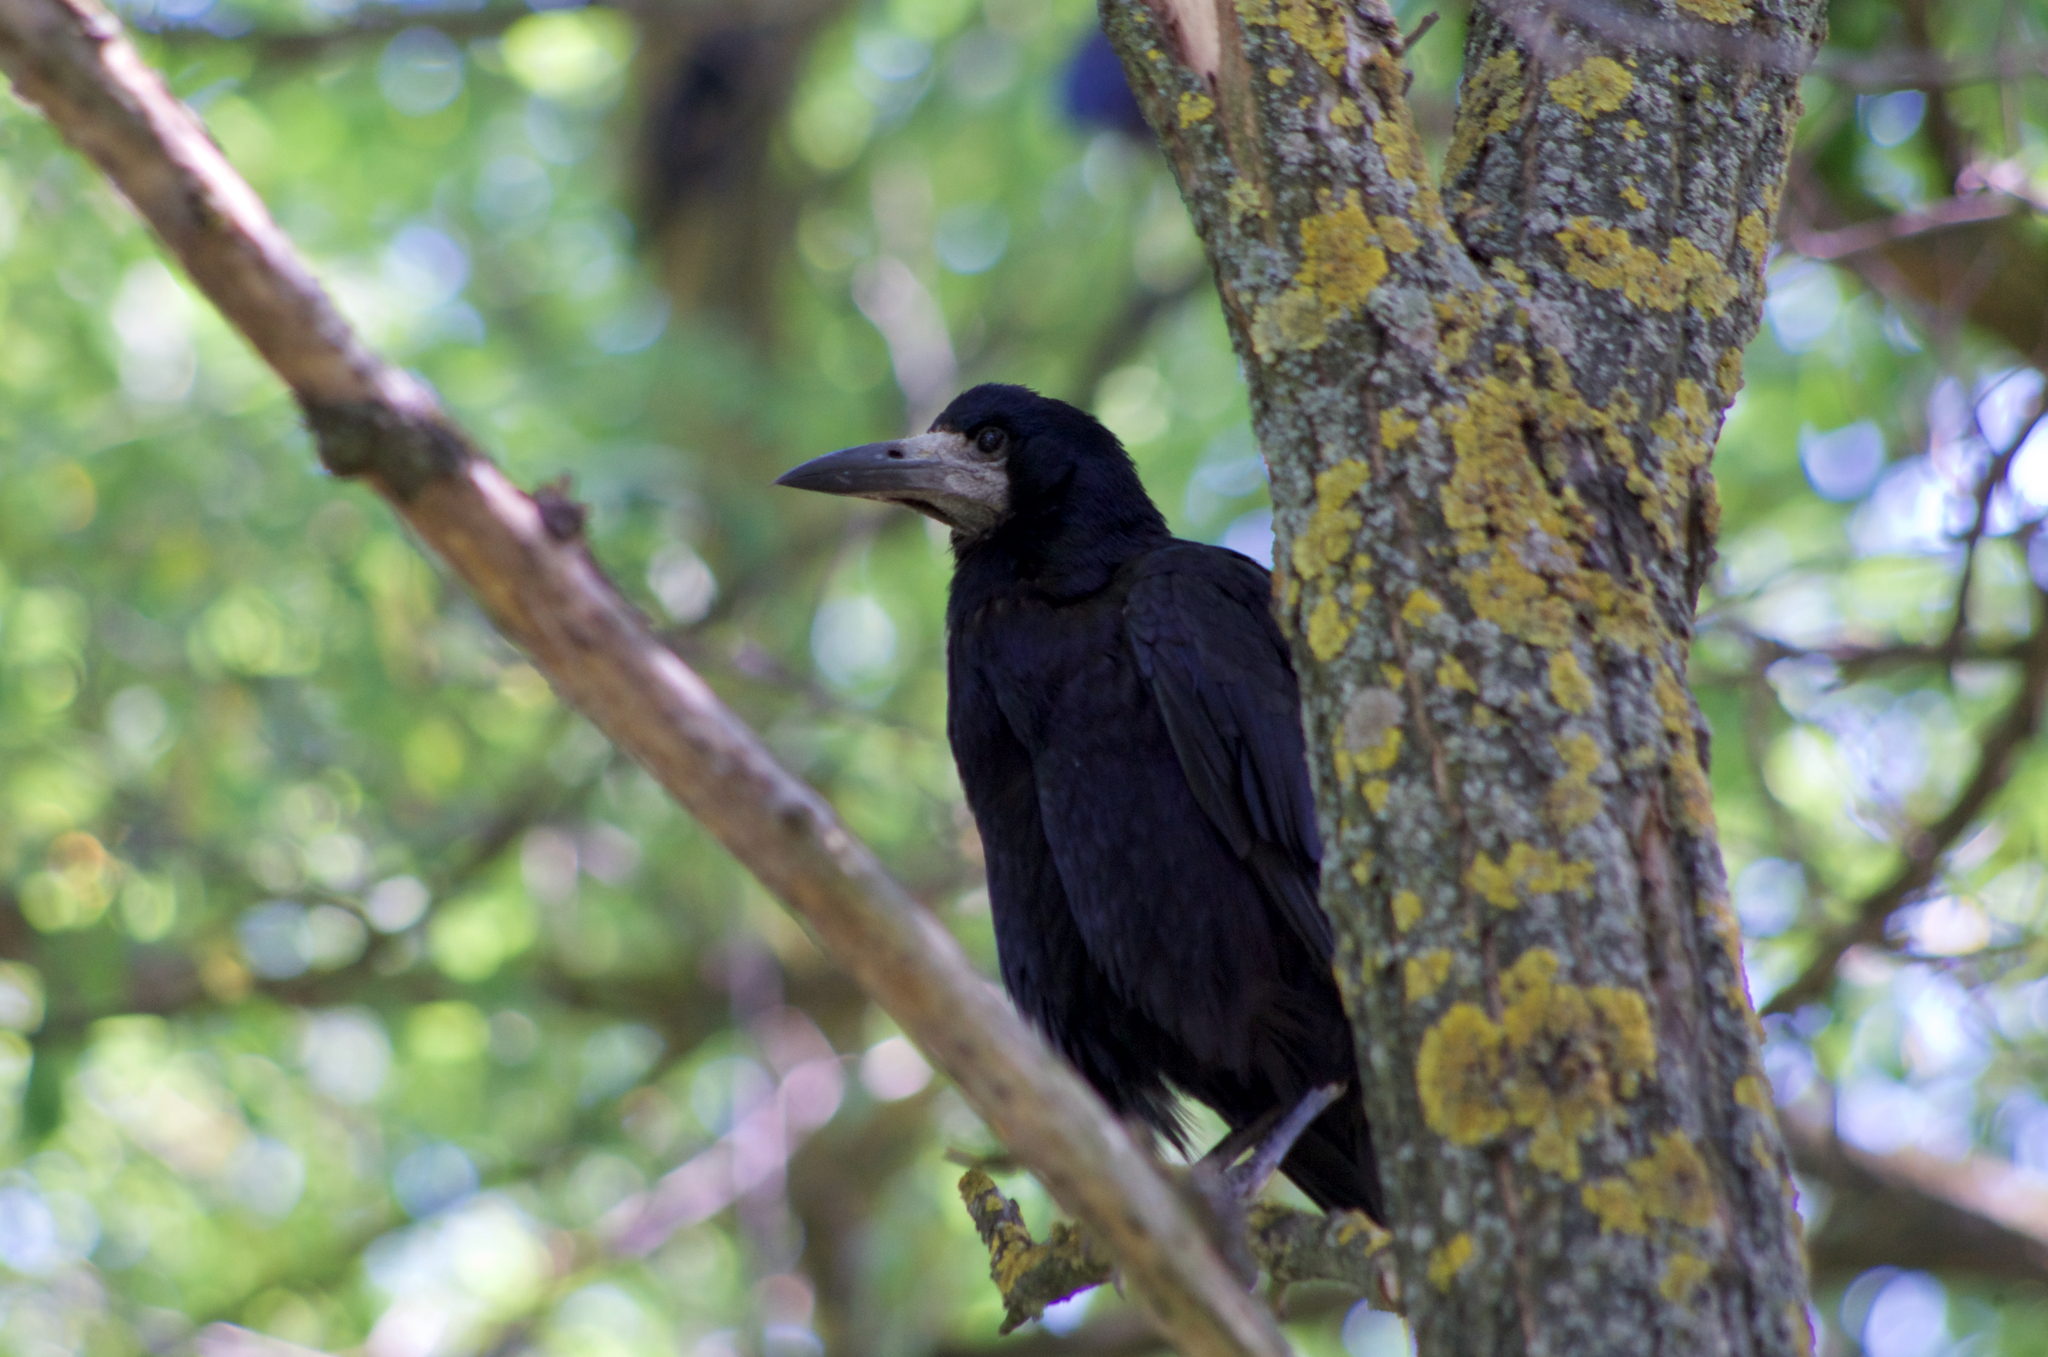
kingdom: Animalia
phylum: Chordata
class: Aves
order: Passeriformes
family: Corvidae
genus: Corvus
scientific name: Corvus frugilegus
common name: Rook
